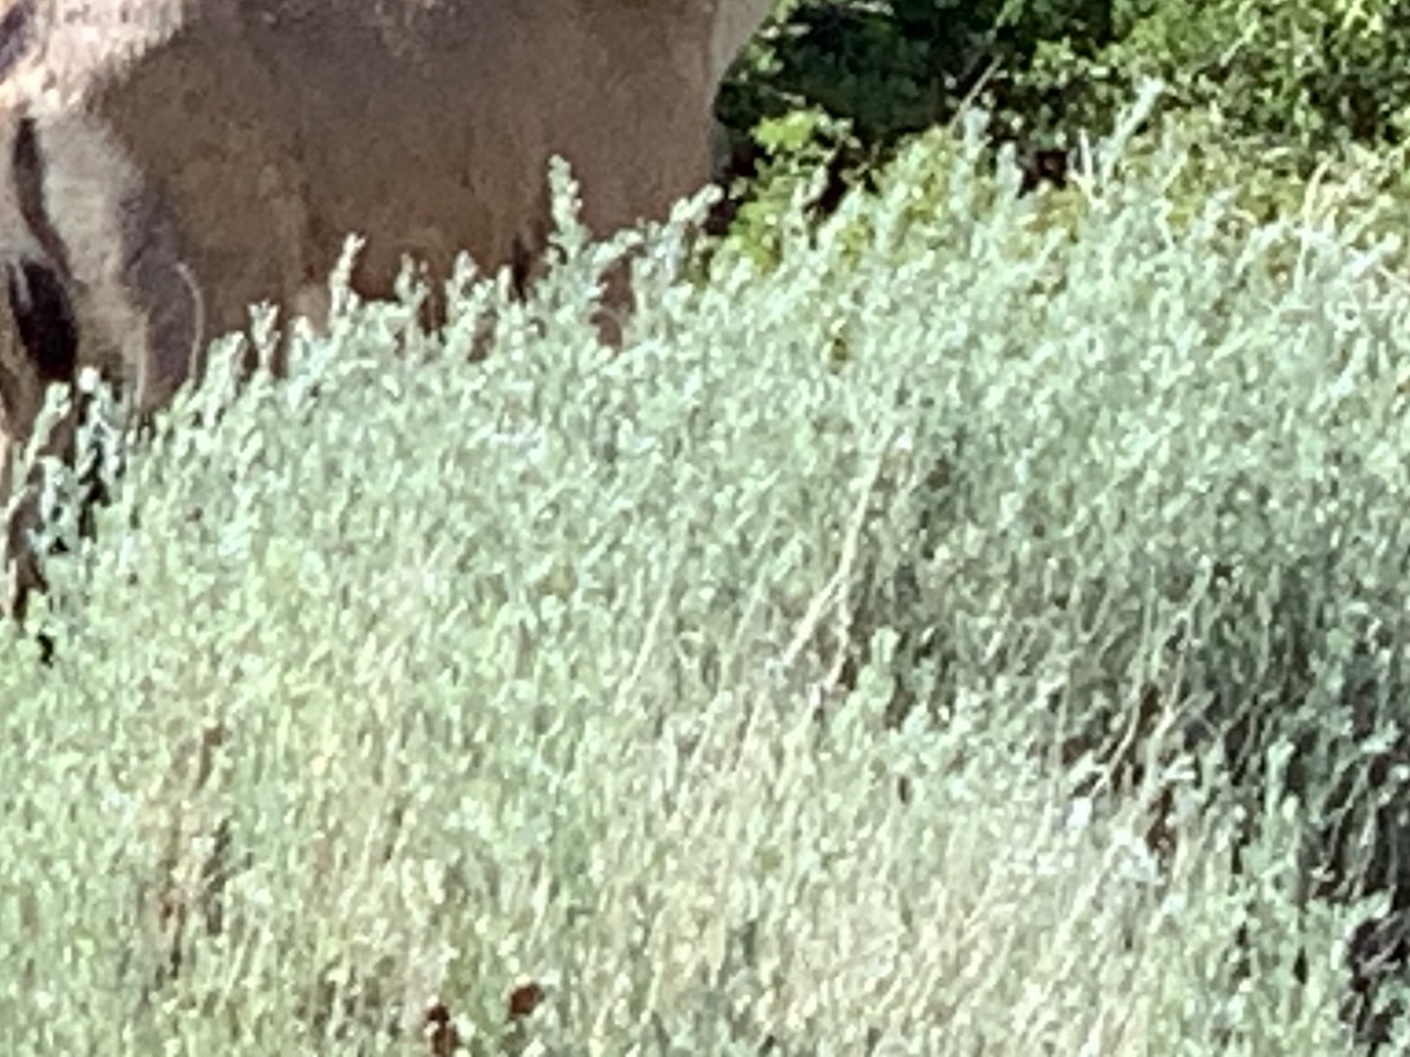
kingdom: Plantae
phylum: Tracheophyta
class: Magnoliopsida
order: Asterales
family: Asteraceae
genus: Artemisia
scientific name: Artemisia tridentata
